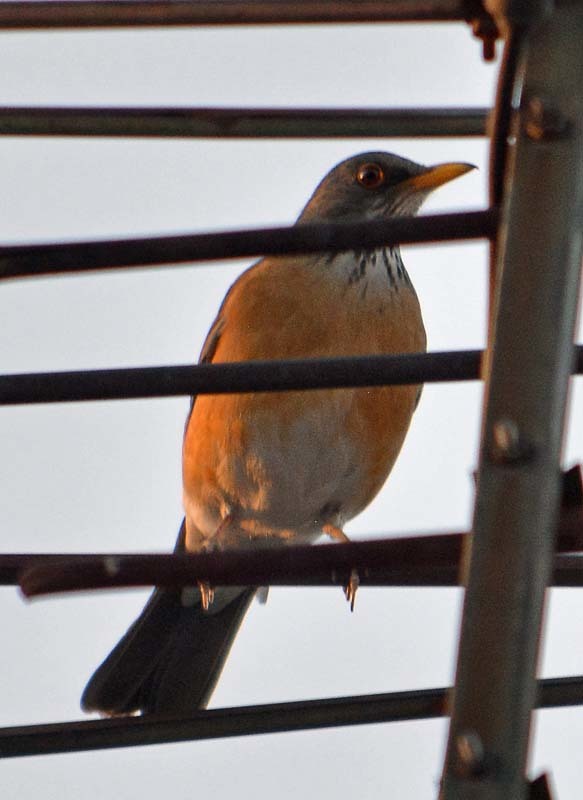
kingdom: Animalia
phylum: Chordata
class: Aves
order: Passeriformes
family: Turdidae
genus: Turdus
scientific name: Turdus rufopalliatus
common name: Rufous-backed robin
